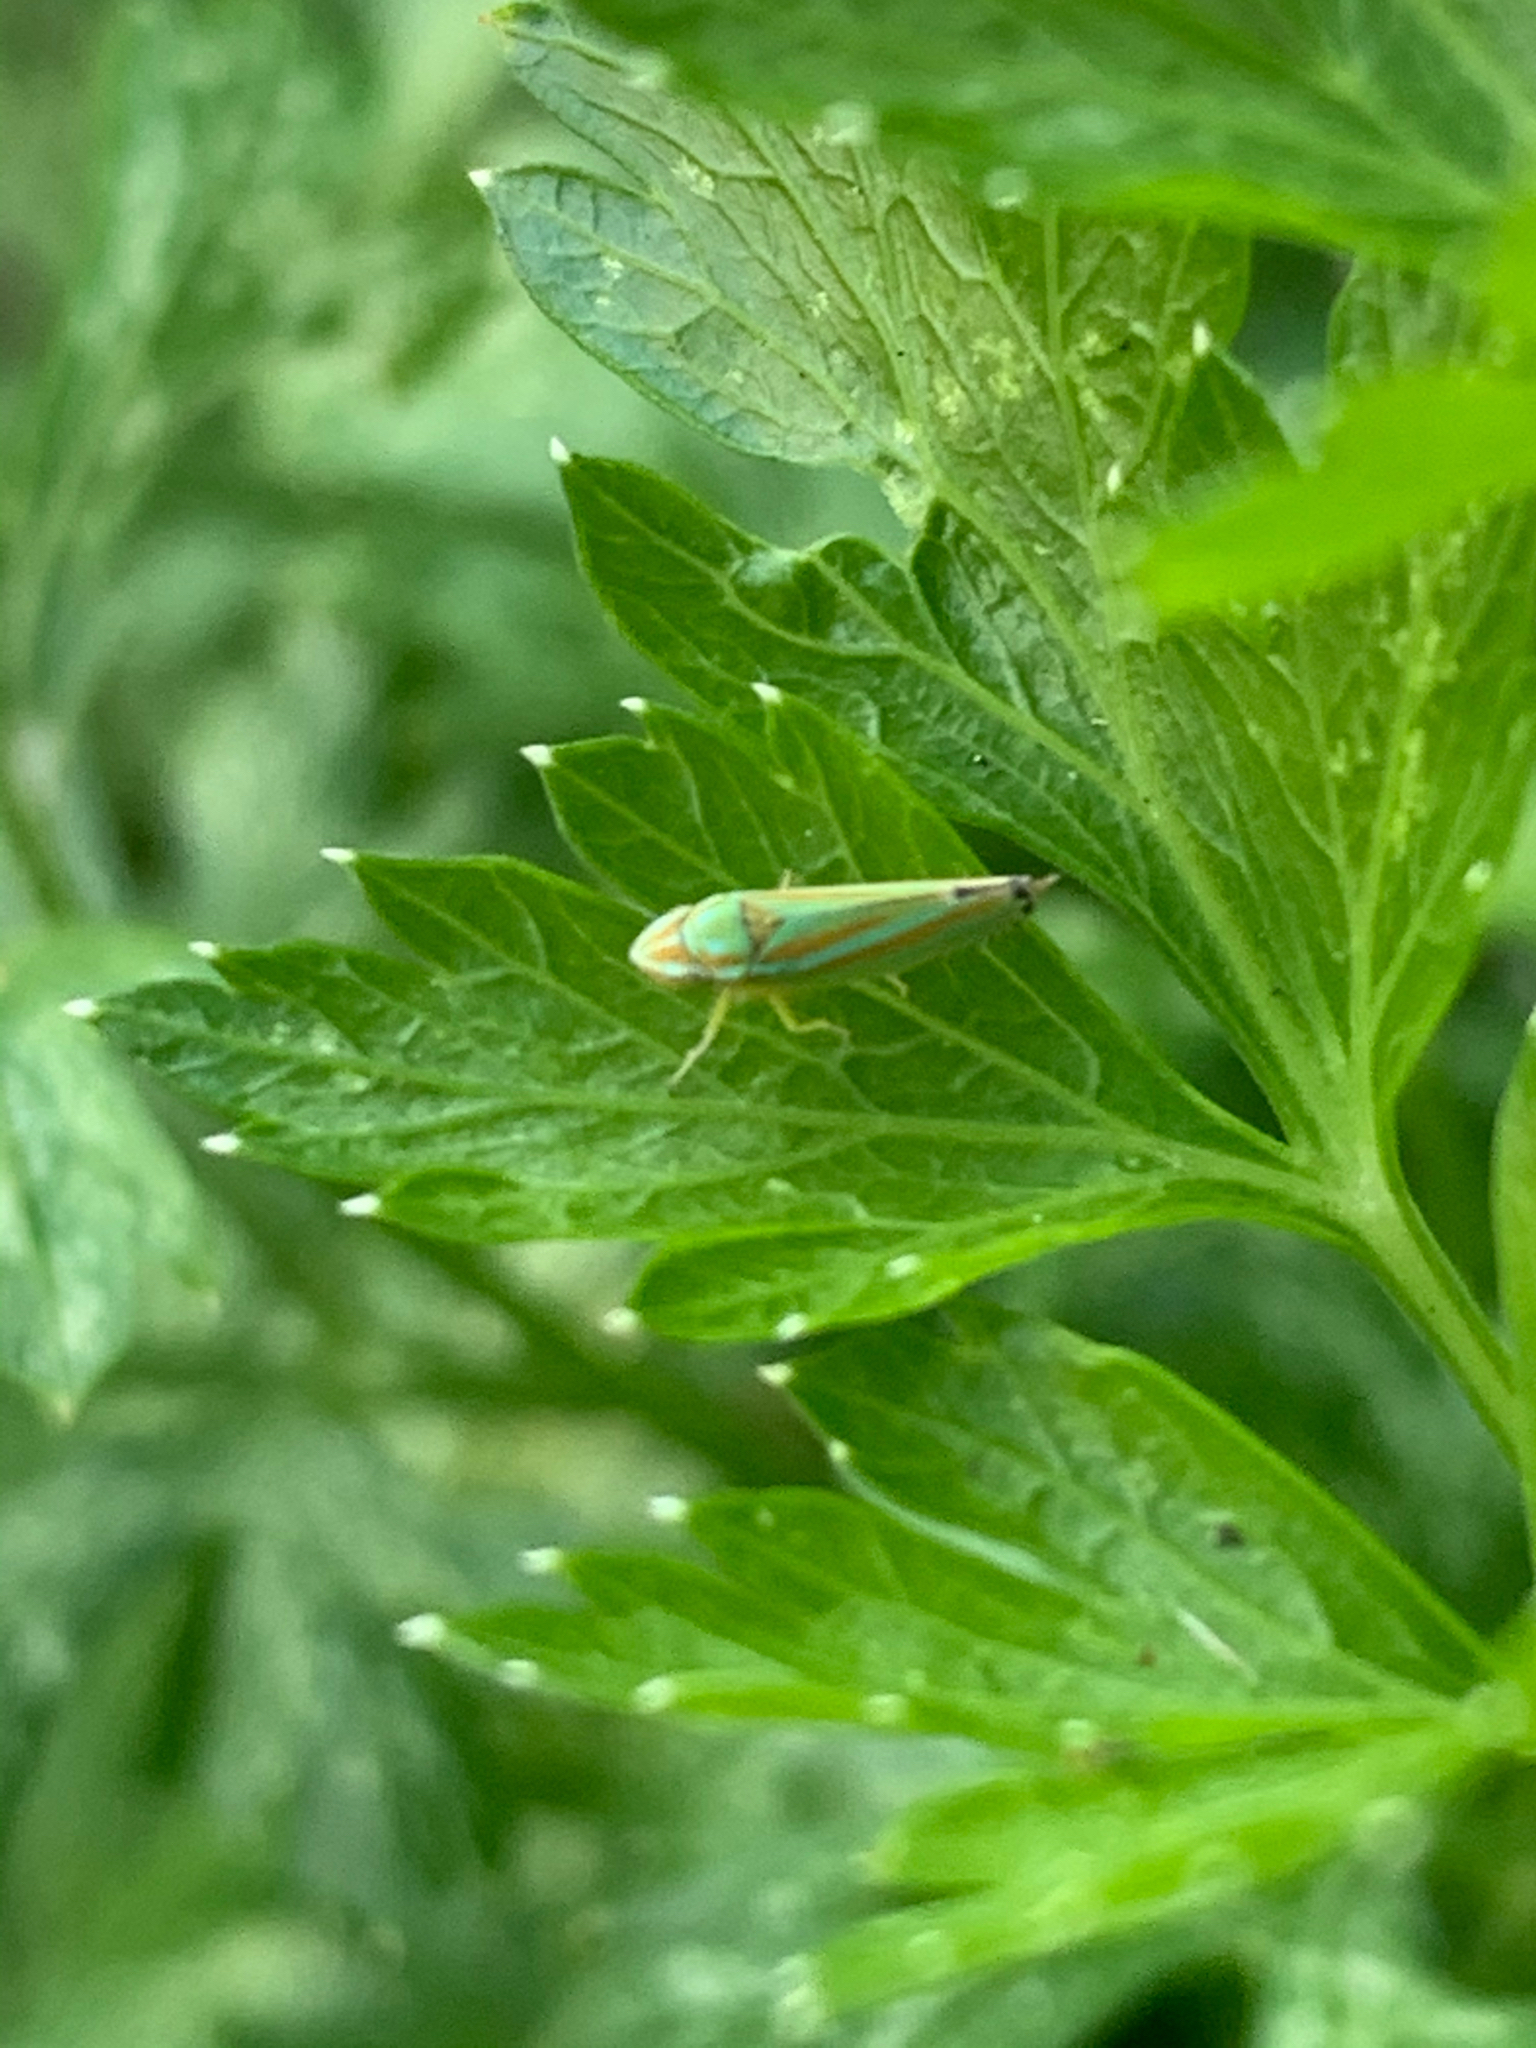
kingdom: Animalia
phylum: Arthropoda
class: Insecta
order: Hemiptera
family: Cicadellidae
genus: Graphocephala
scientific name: Graphocephala versuta
